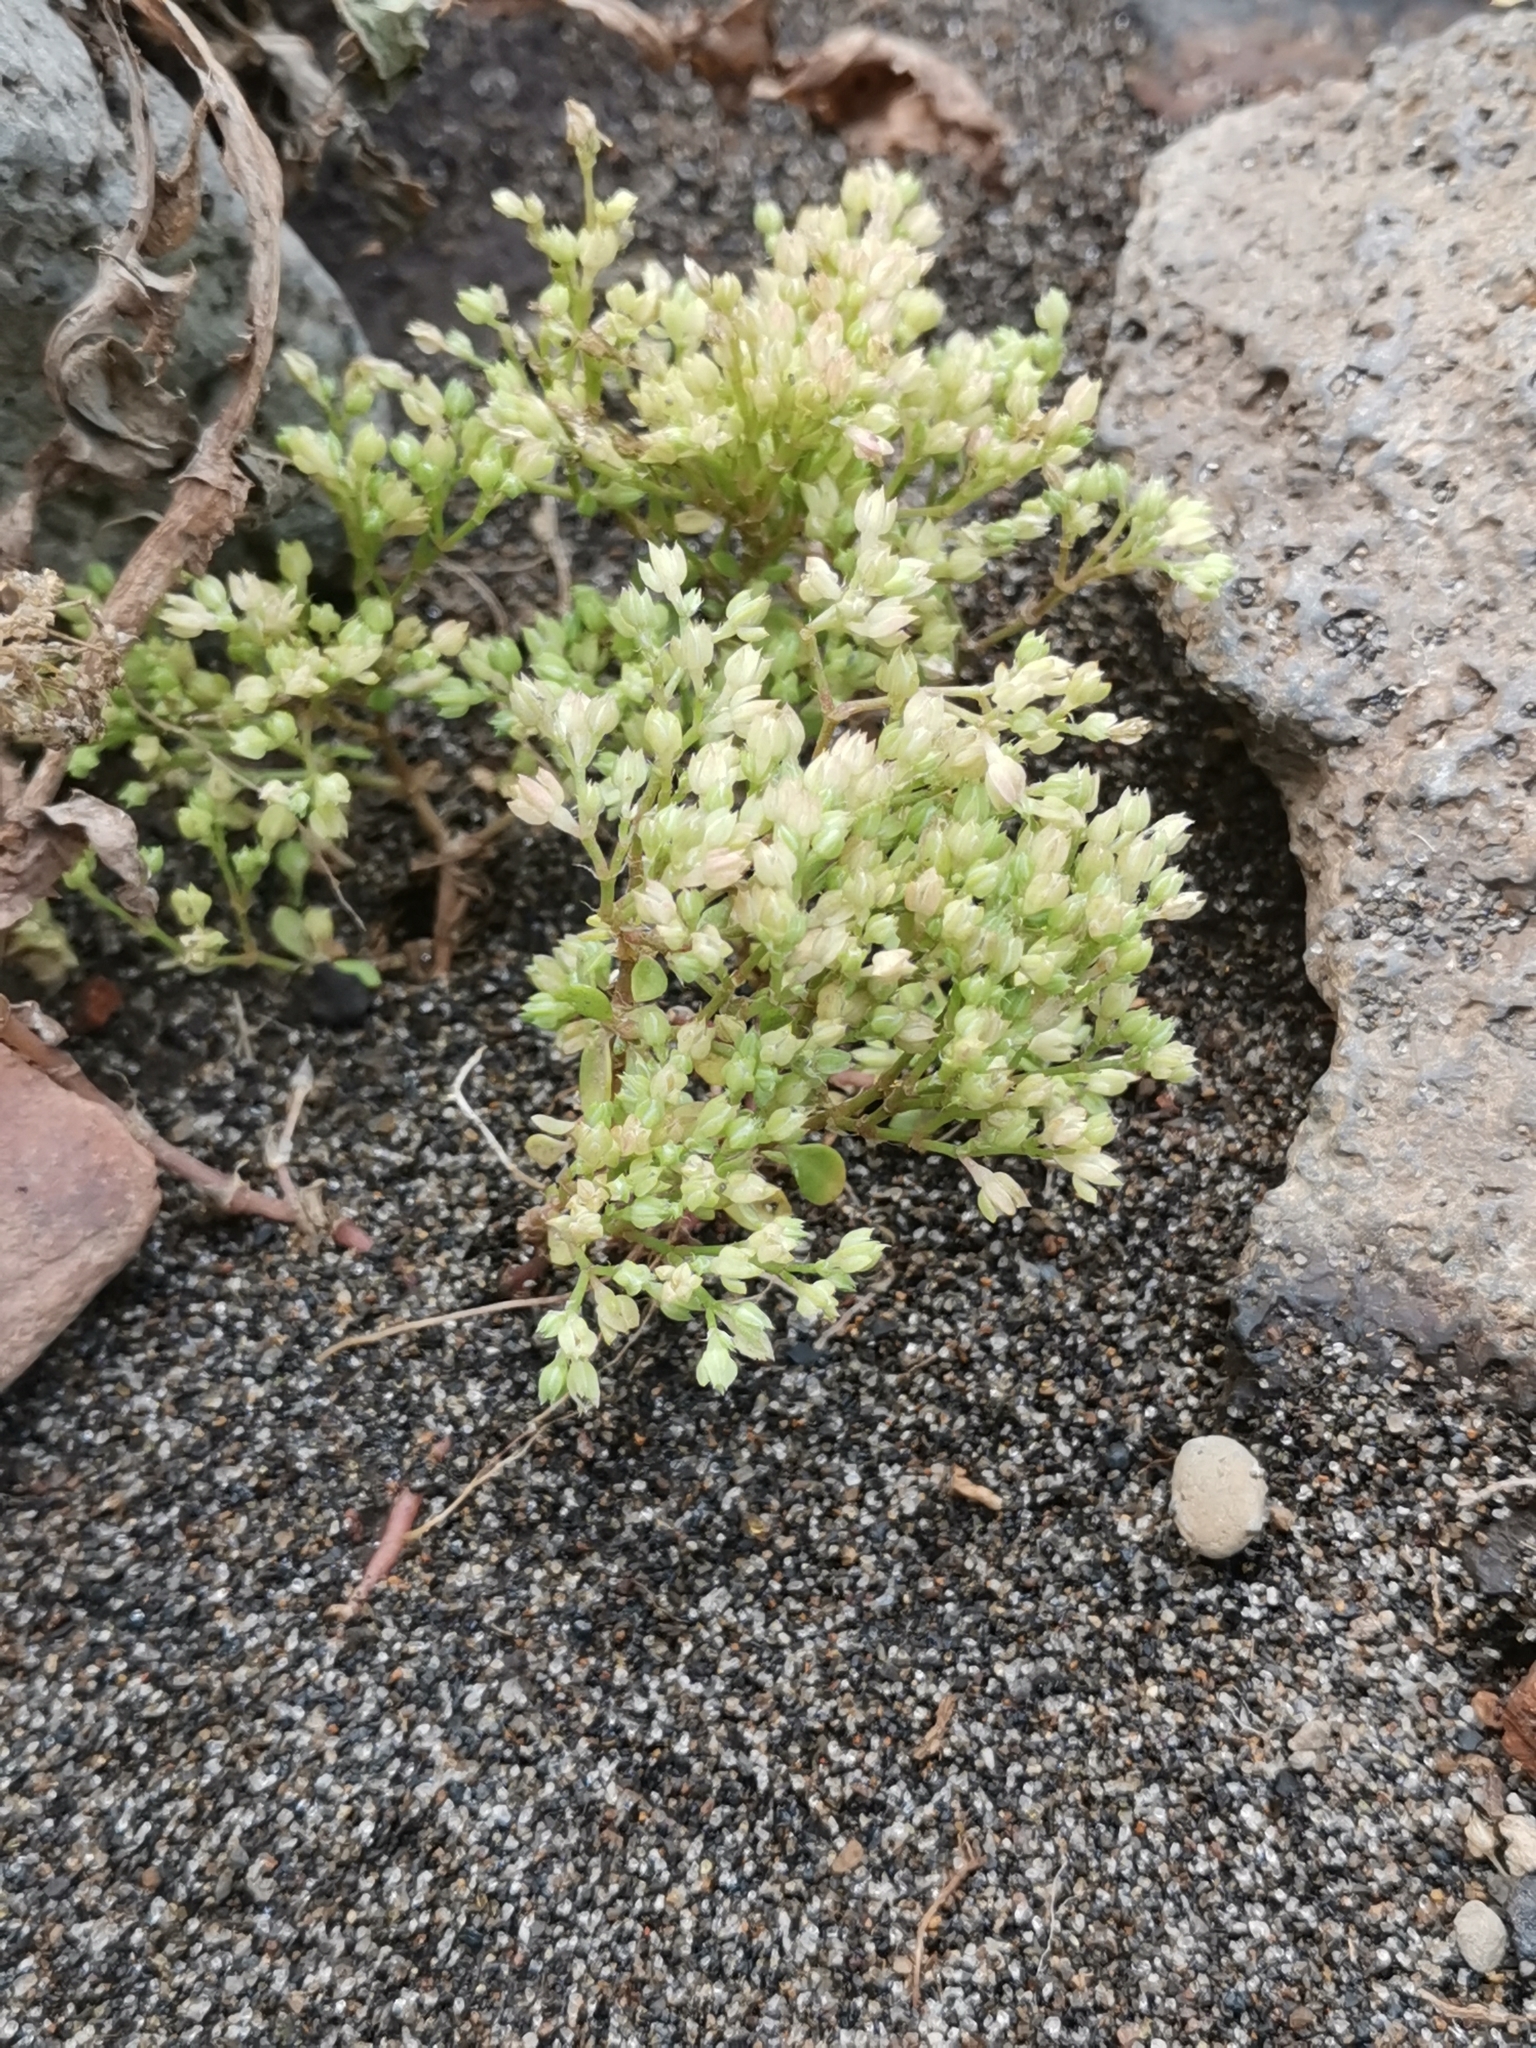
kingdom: Plantae
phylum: Tracheophyta
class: Magnoliopsida
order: Caryophyllales
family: Caryophyllaceae
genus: Polycarpon
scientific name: Polycarpon tetraphyllum
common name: Four-leaved all-seed
